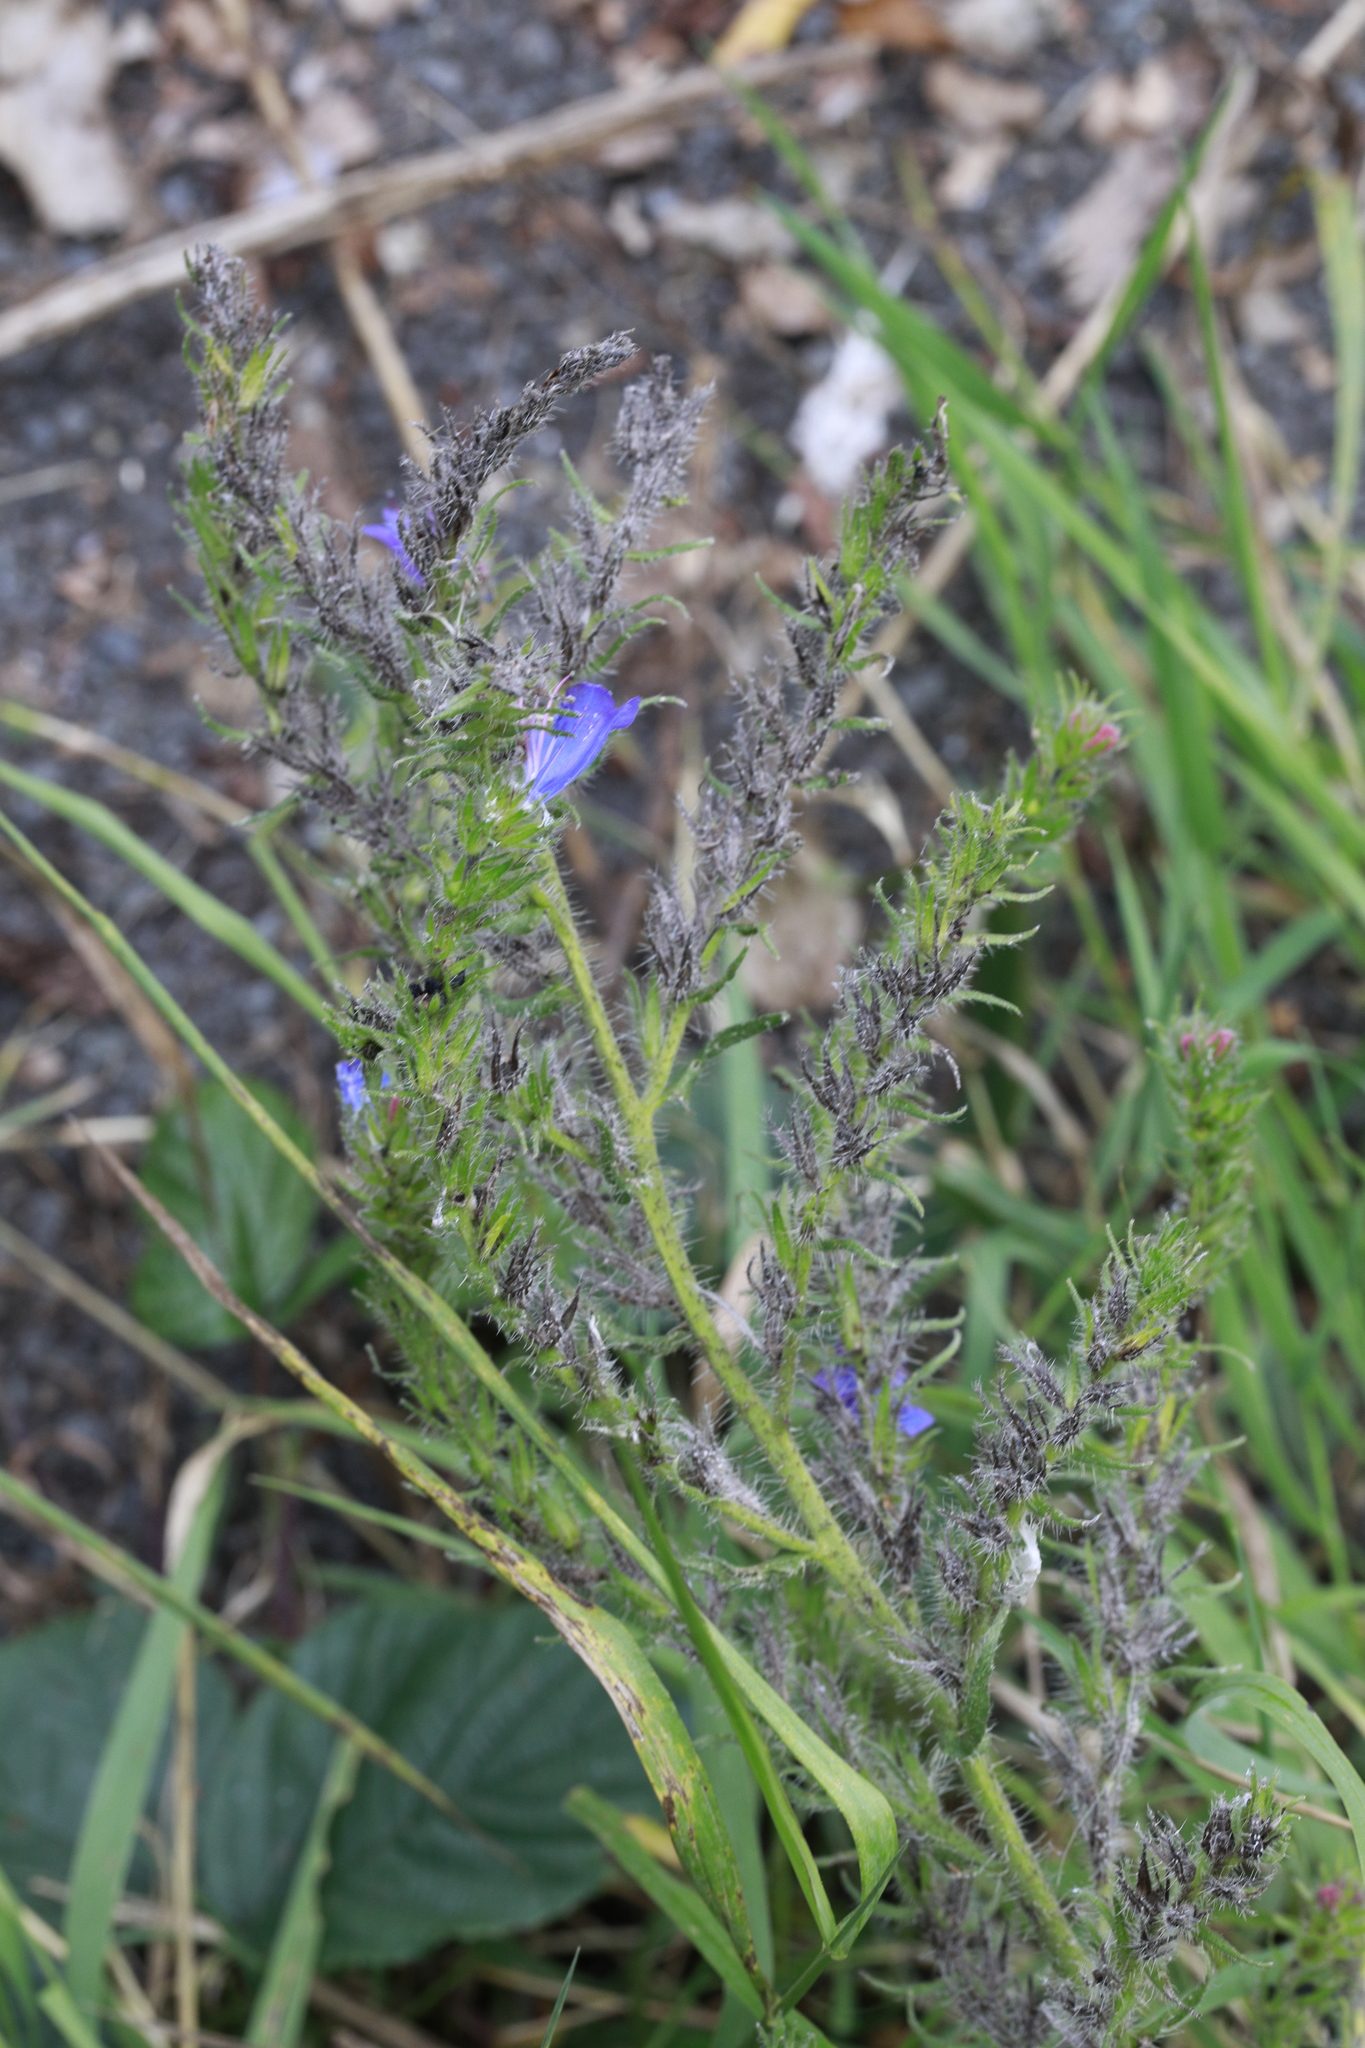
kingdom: Plantae
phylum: Tracheophyta
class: Magnoliopsida
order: Boraginales
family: Boraginaceae
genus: Echium
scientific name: Echium vulgare
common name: Common viper's bugloss
